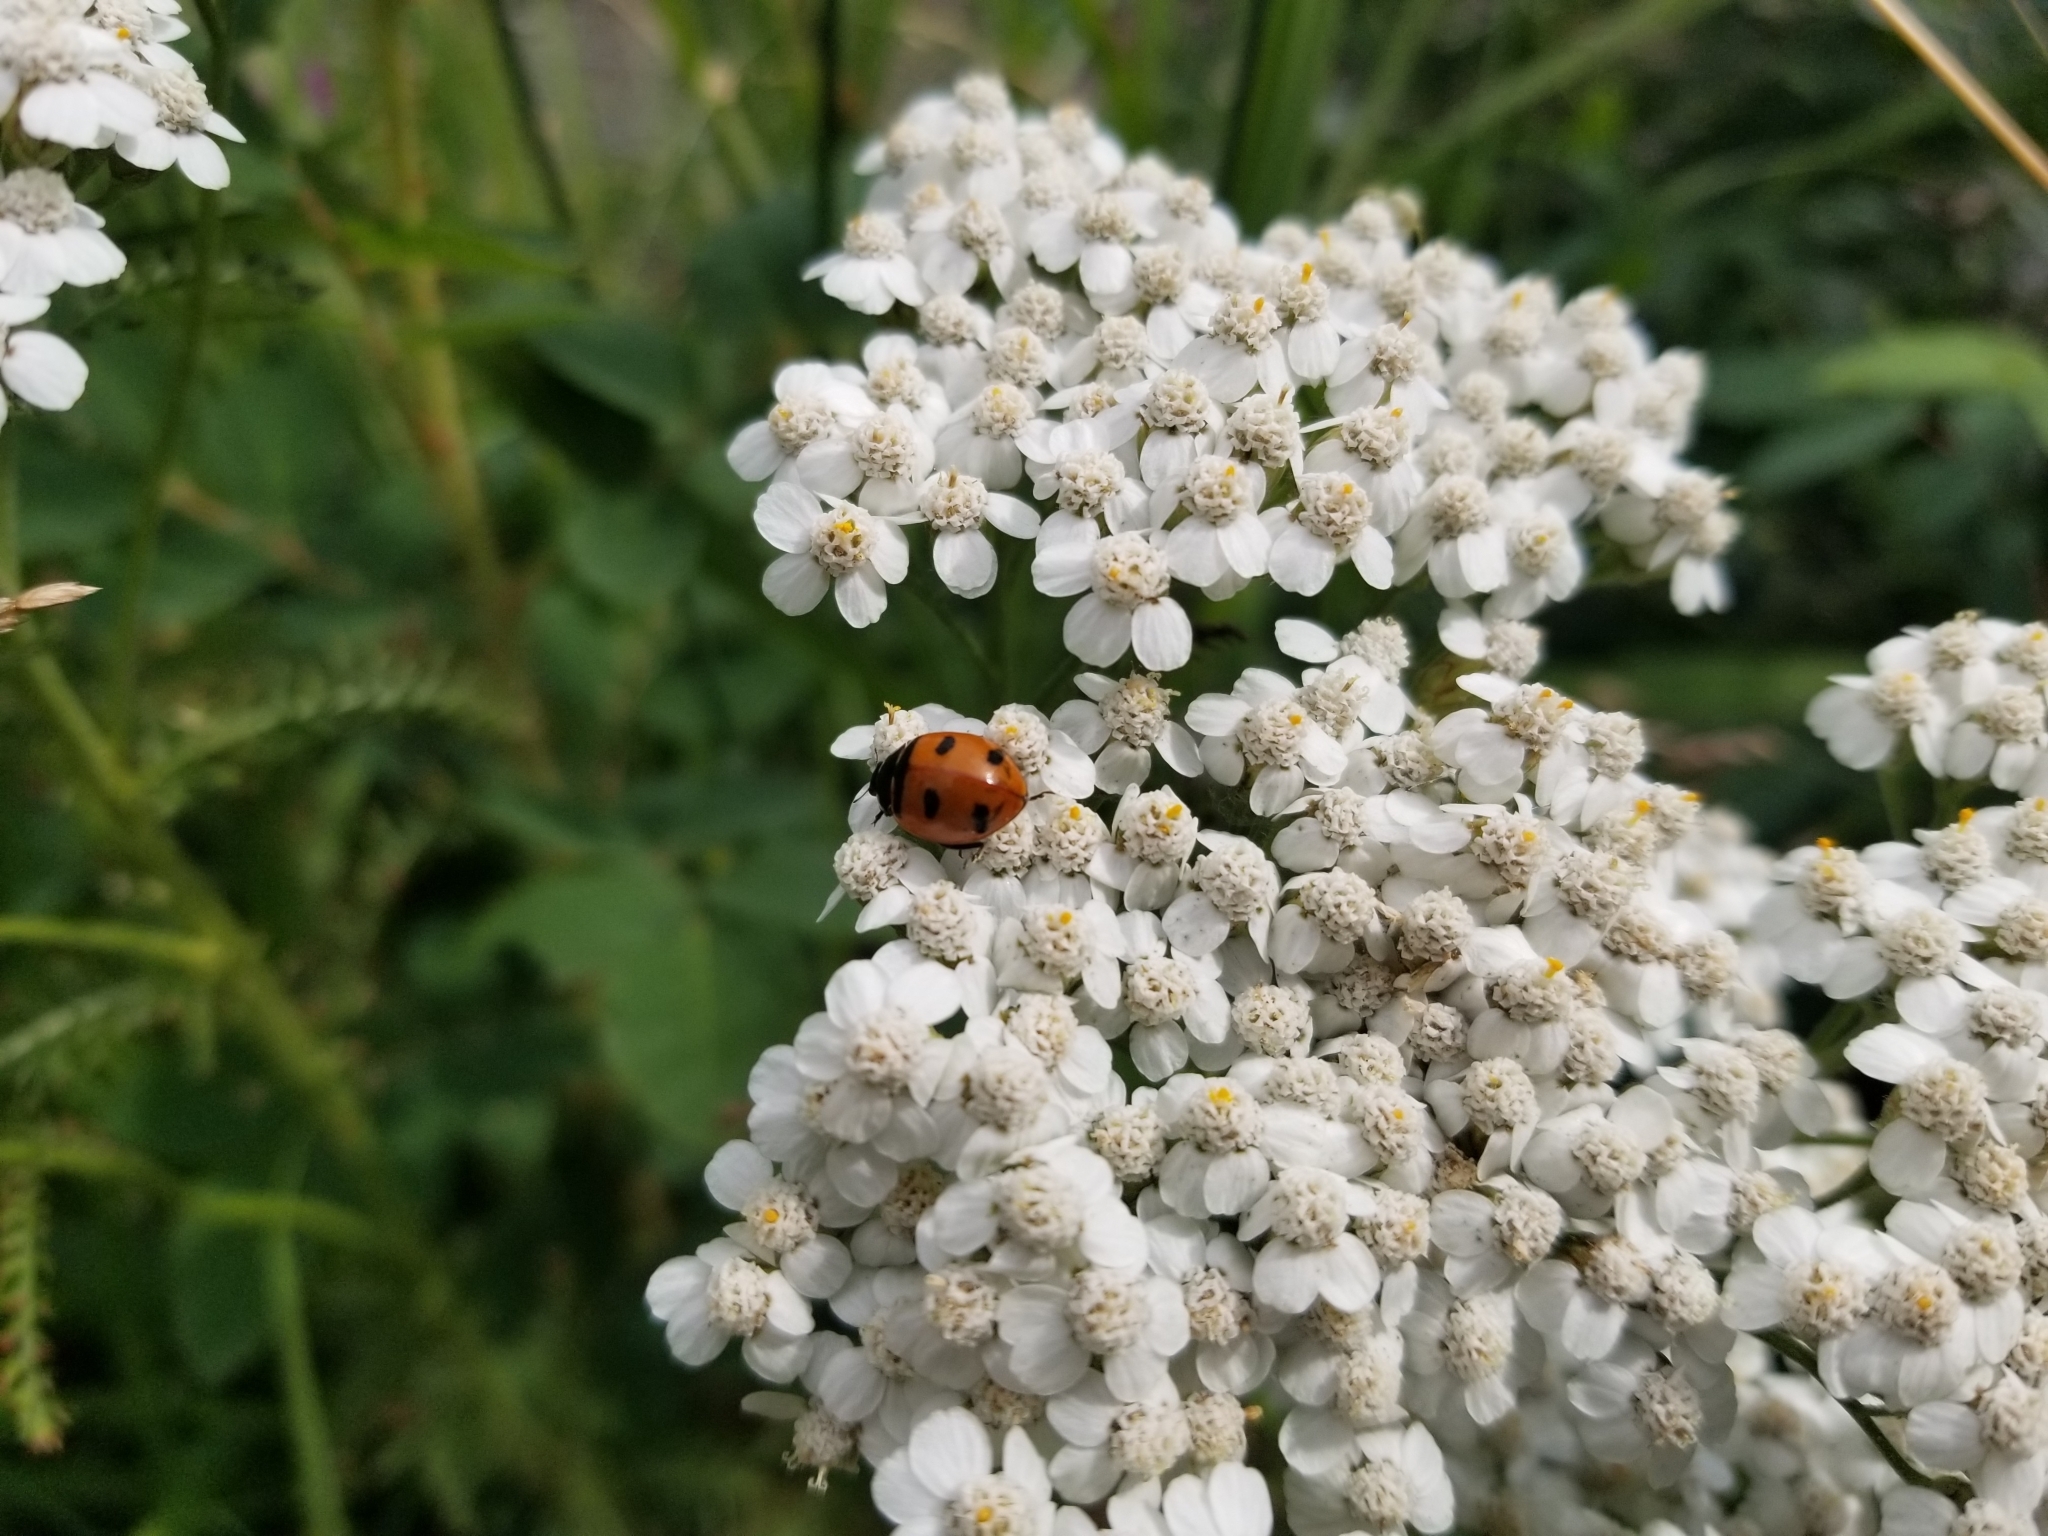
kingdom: Animalia
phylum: Arthropoda
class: Insecta
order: Coleoptera
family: Coccinellidae
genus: Coccinella
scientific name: Coccinella transversoguttata
